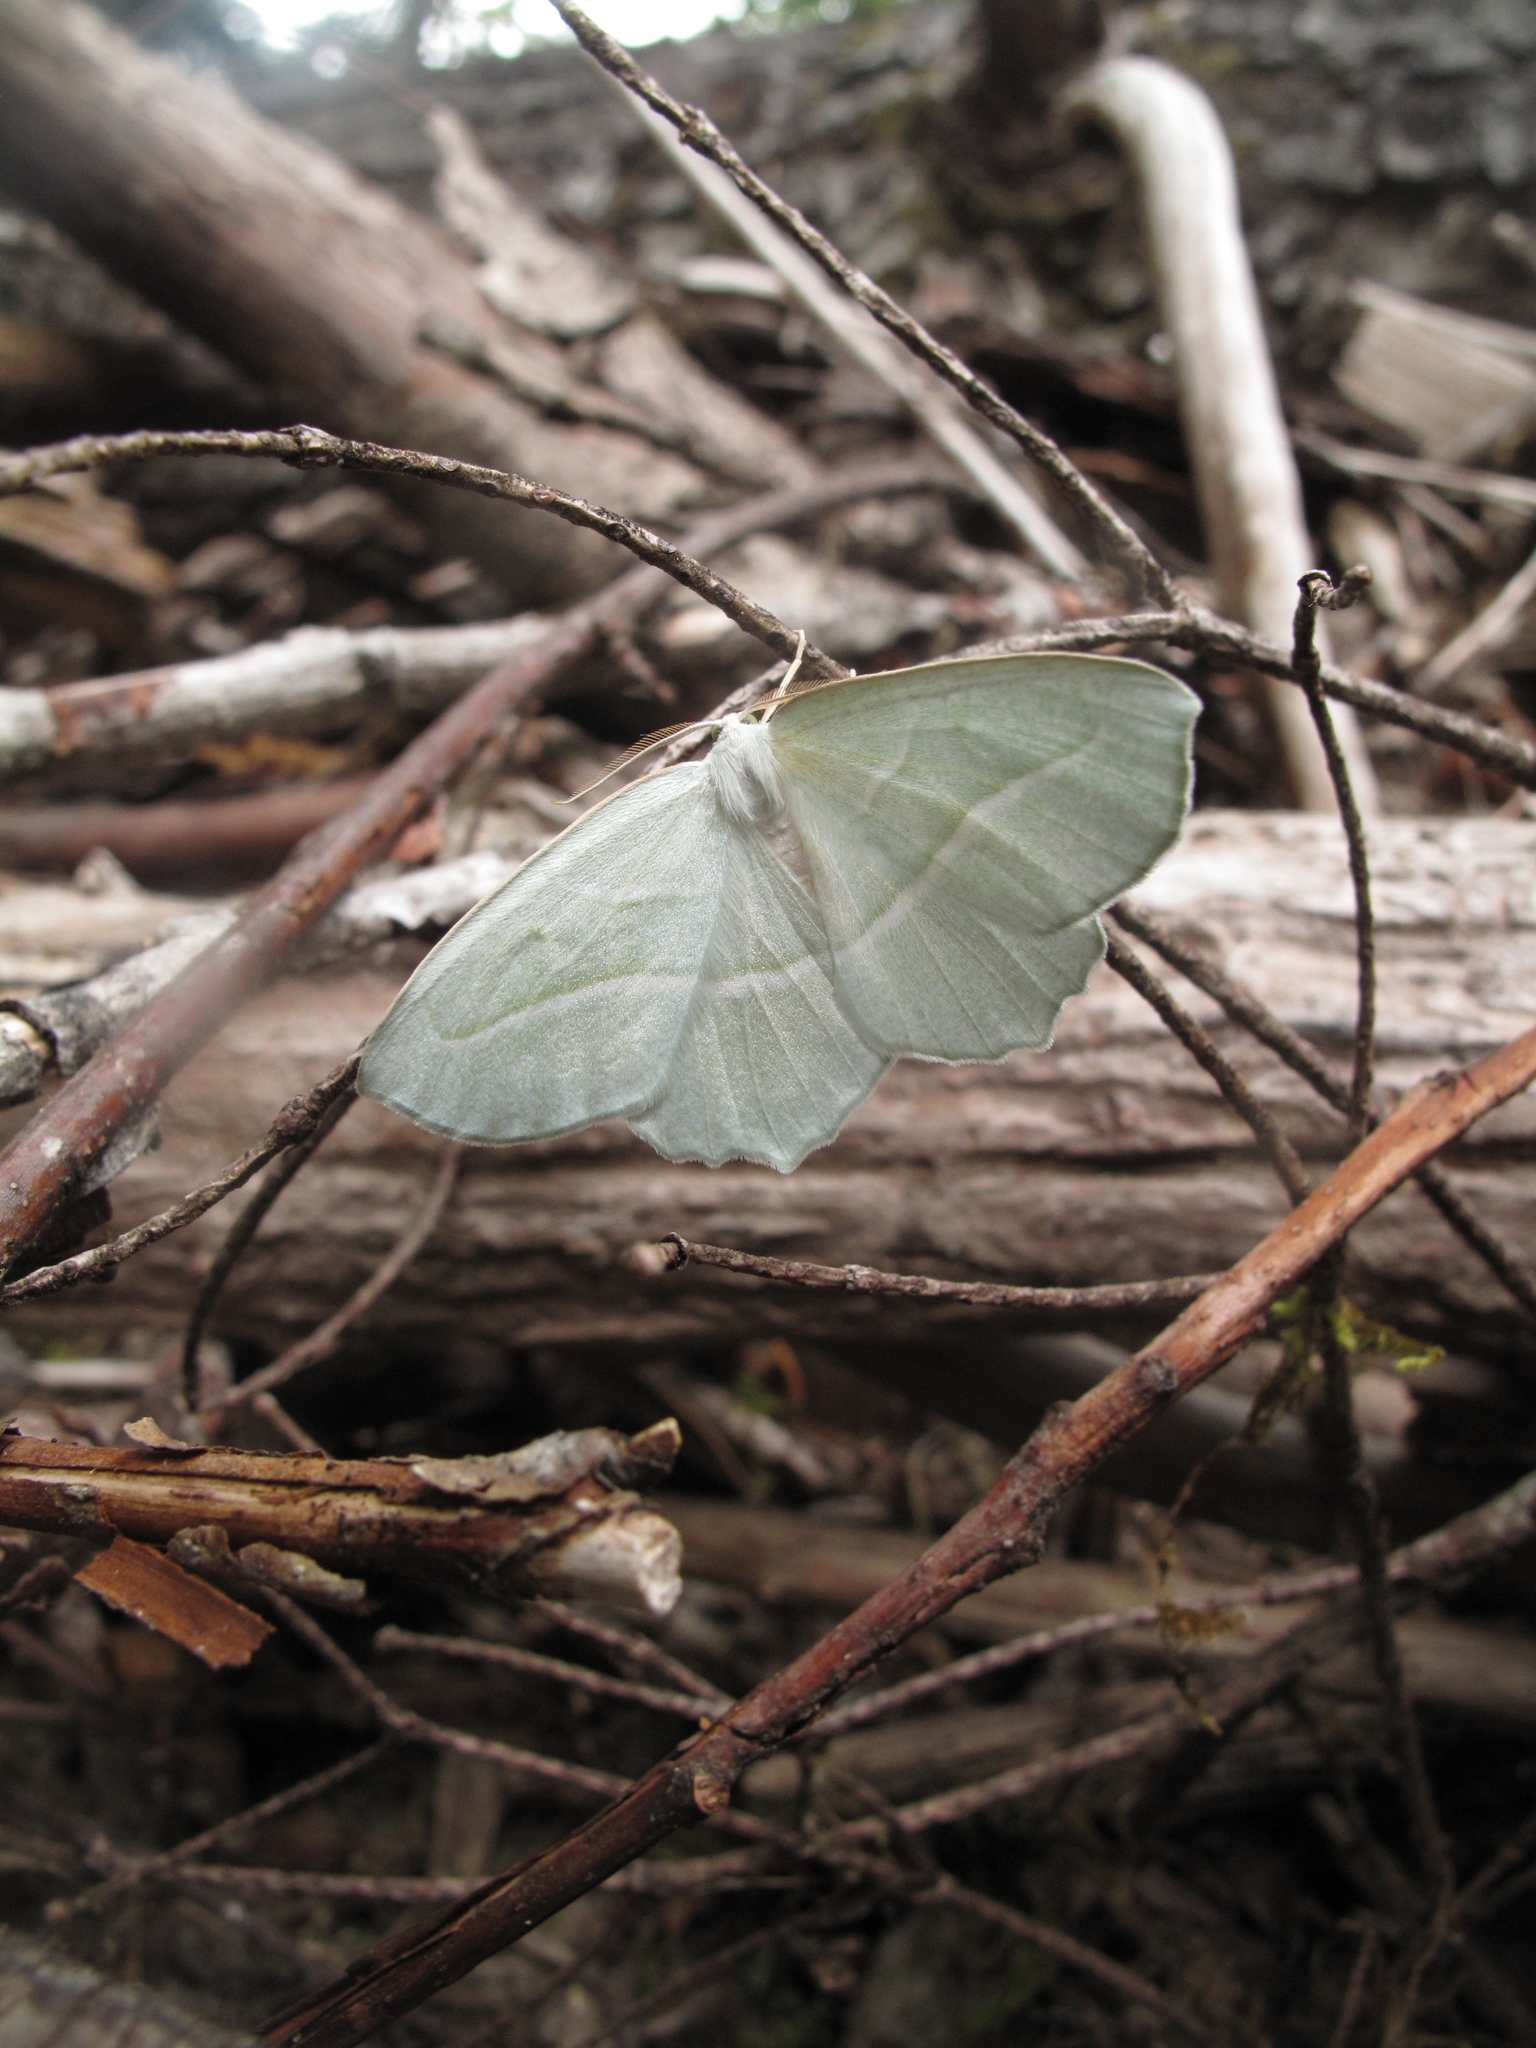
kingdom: Animalia
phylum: Arthropoda
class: Insecta
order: Lepidoptera
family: Geometridae
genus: Campaea
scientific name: Campaea perlata
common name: Fringed looper
